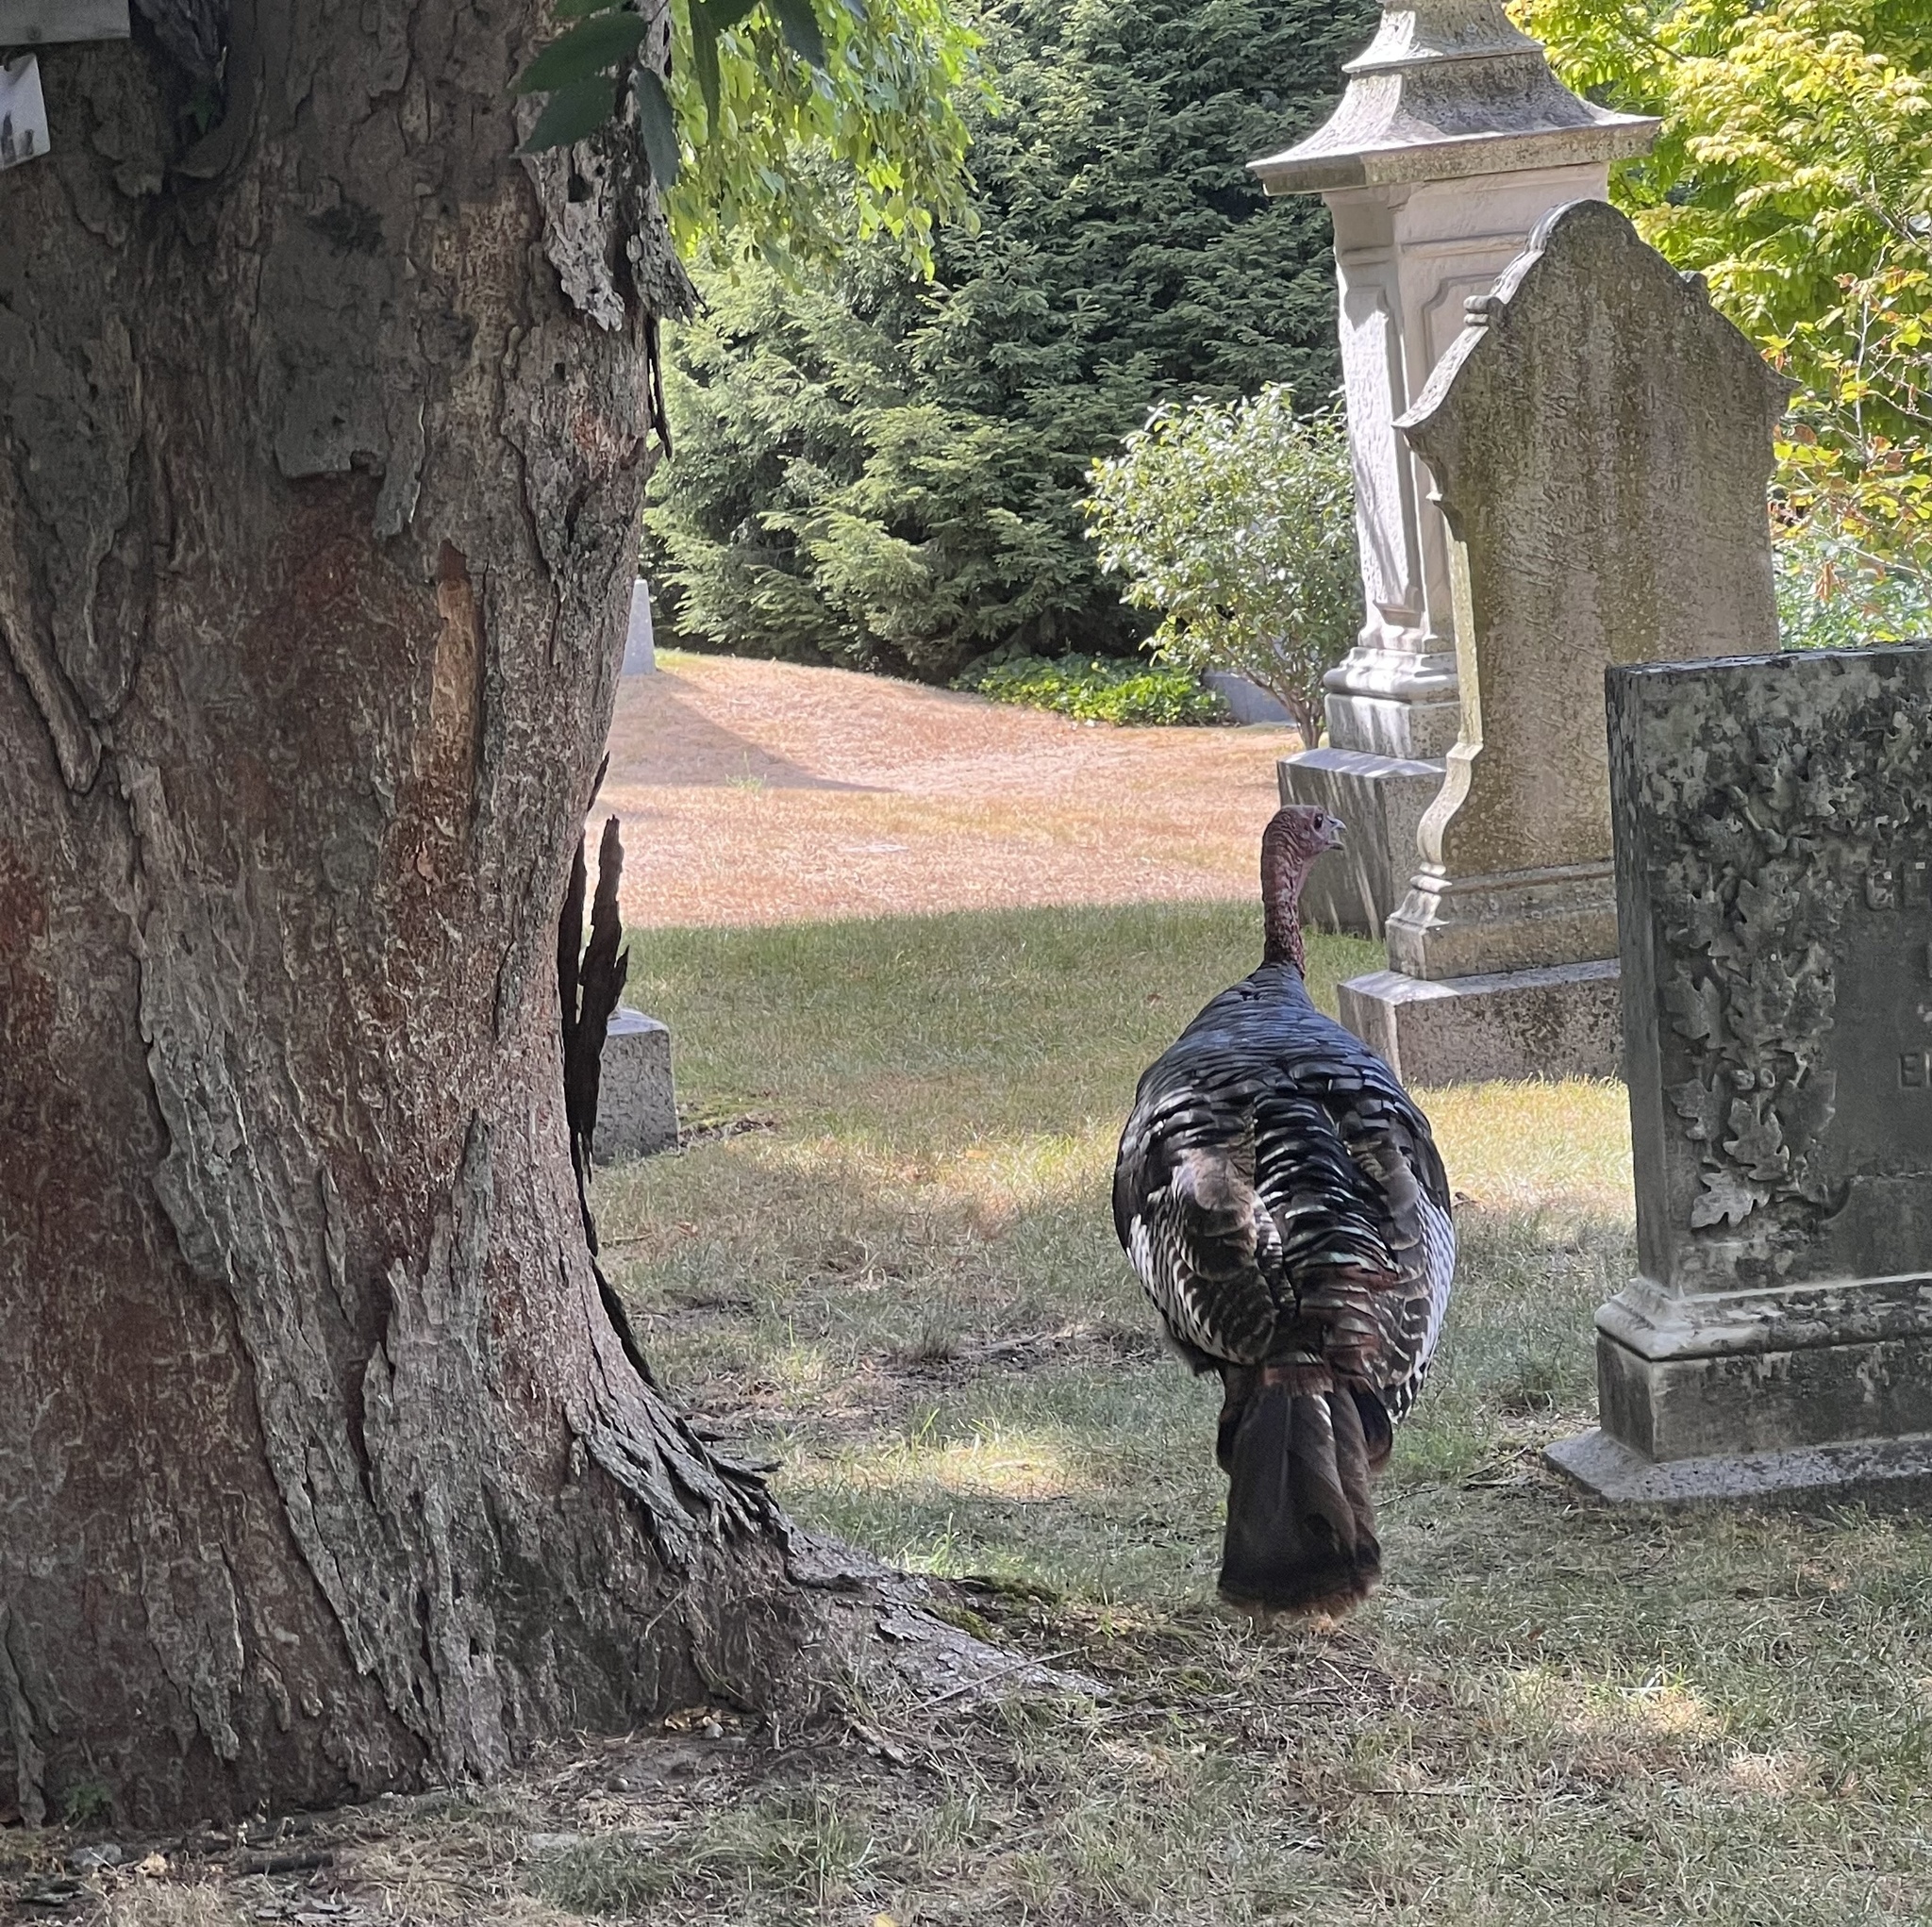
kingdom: Animalia
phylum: Chordata
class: Aves
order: Galliformes
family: Phasianidae
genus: Meleagris
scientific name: Meleagris gallopavo
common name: Wild turkey
